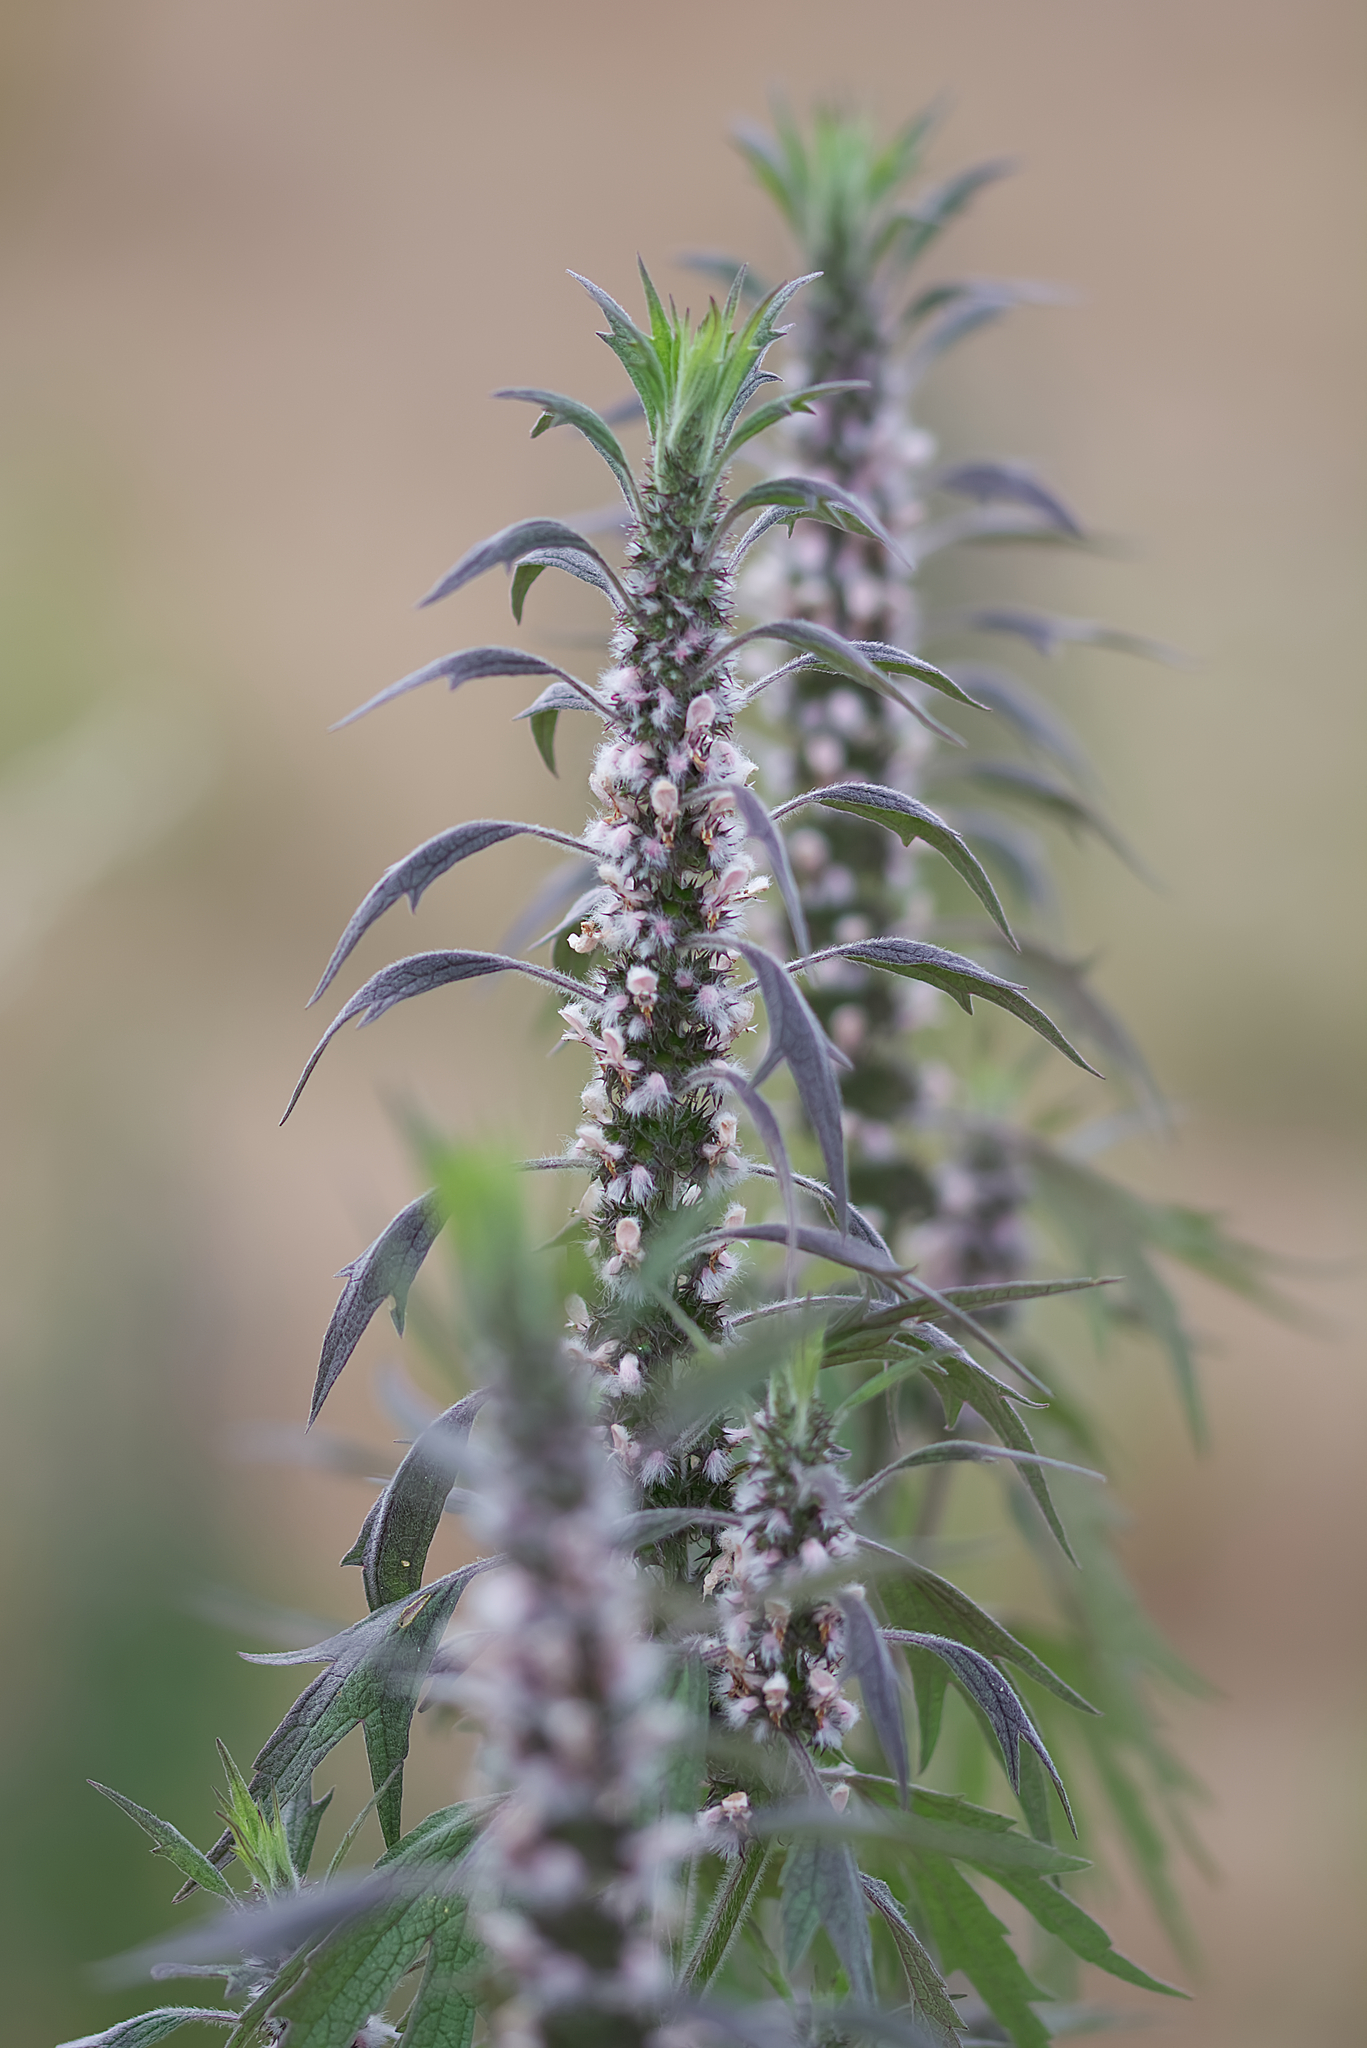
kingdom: Plantae
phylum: Tracheophyta
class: Magnoliopsida
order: Lamiales
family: Lamiaceae
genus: Leonurus
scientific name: Leonurus quinquelobatus
